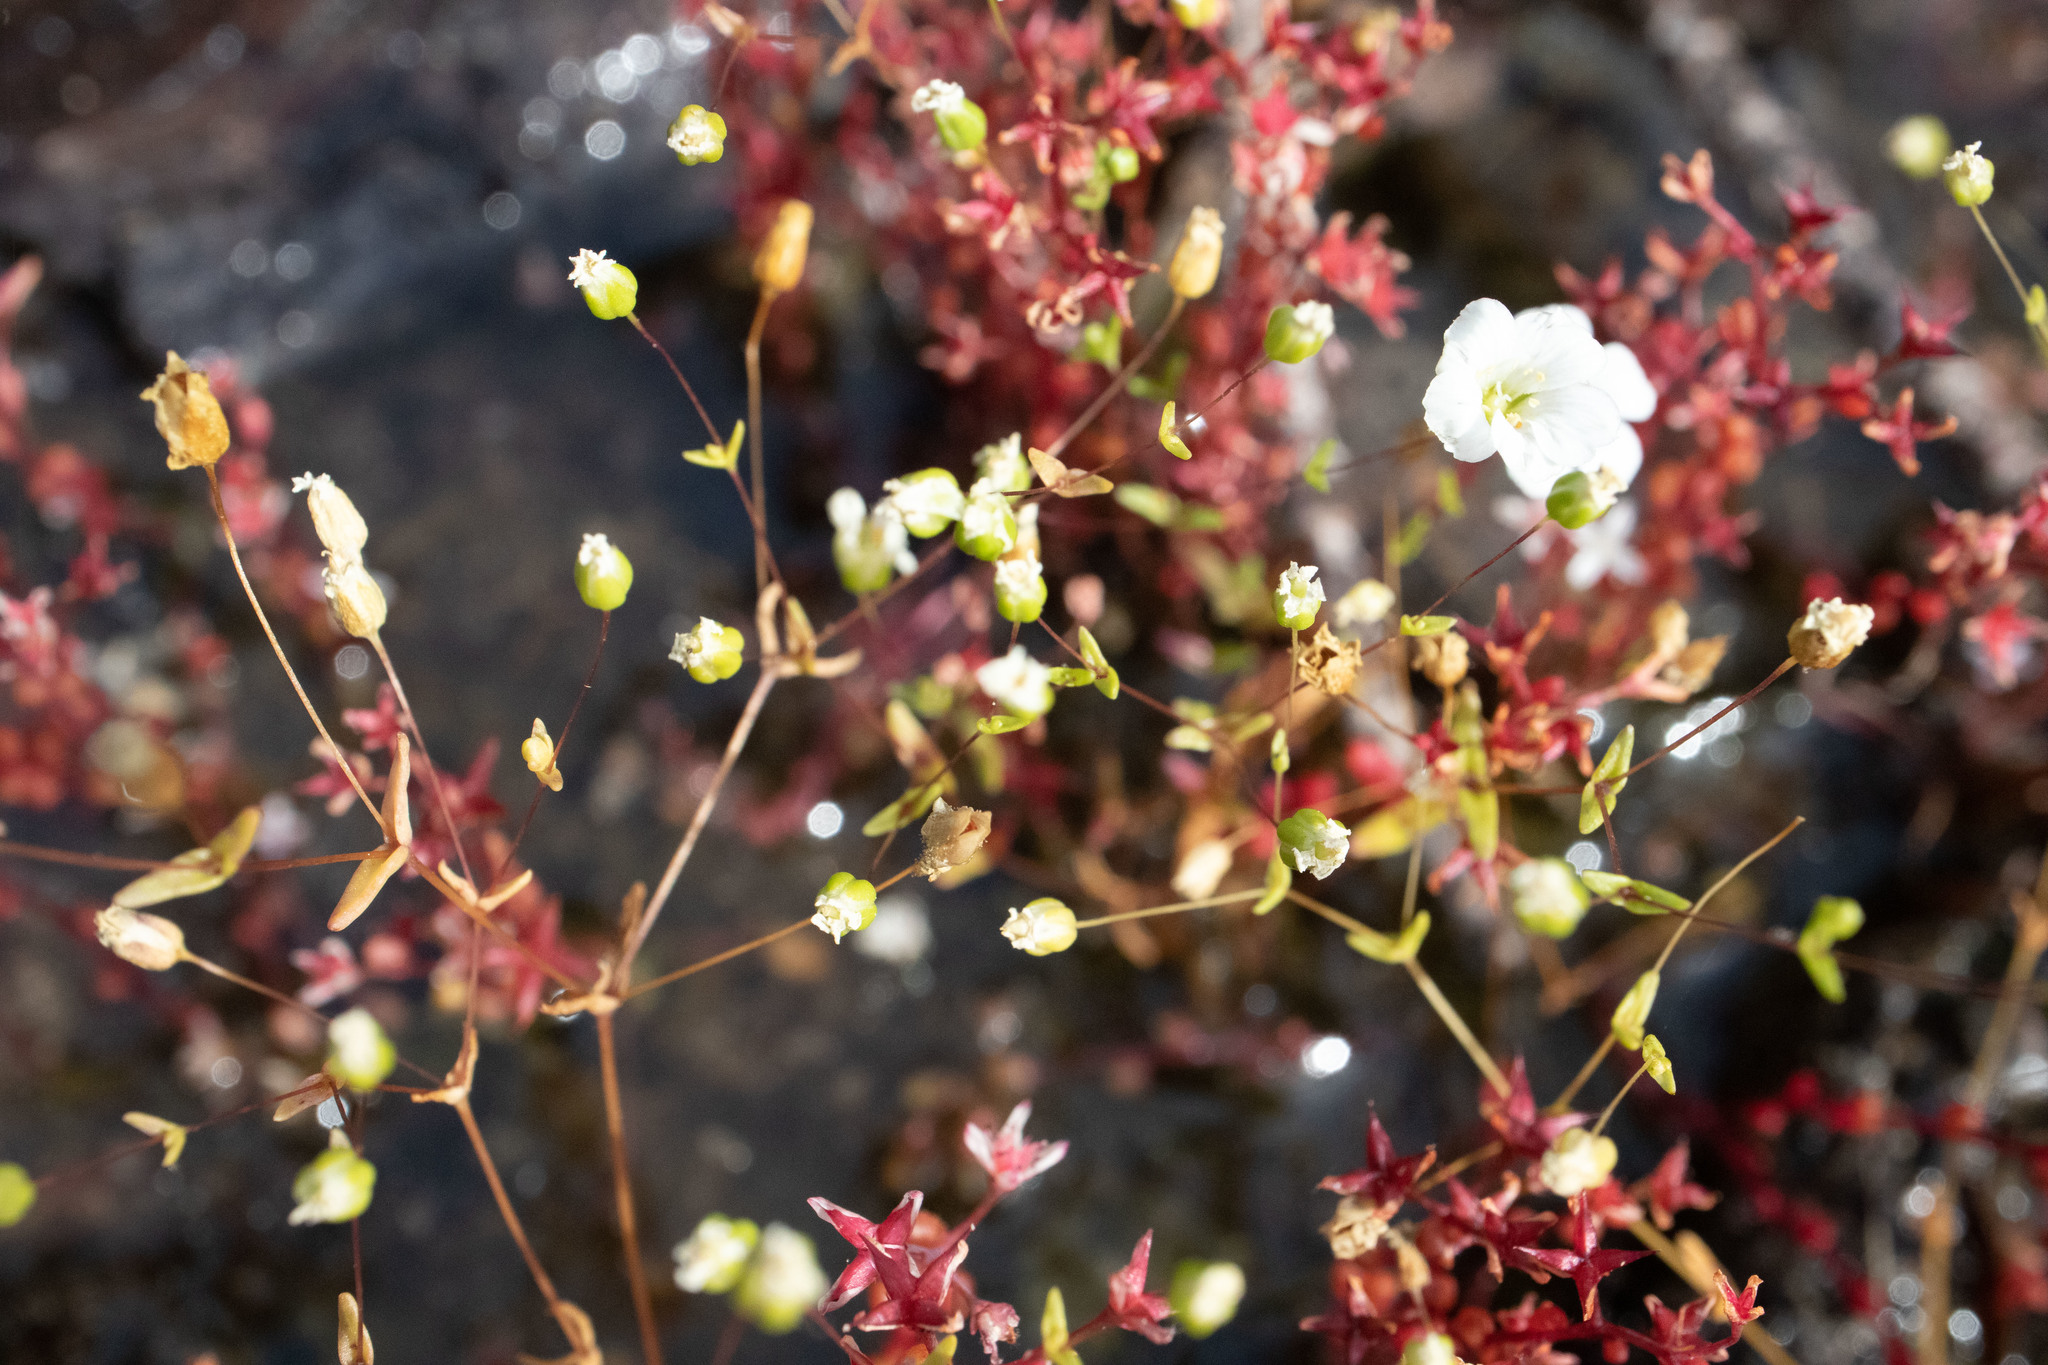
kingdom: Plantae
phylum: Tracheophyta
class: Magnoliopsida
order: Saxifragales
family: Crassulaceae
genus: Sedum
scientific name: Sedum smallii
